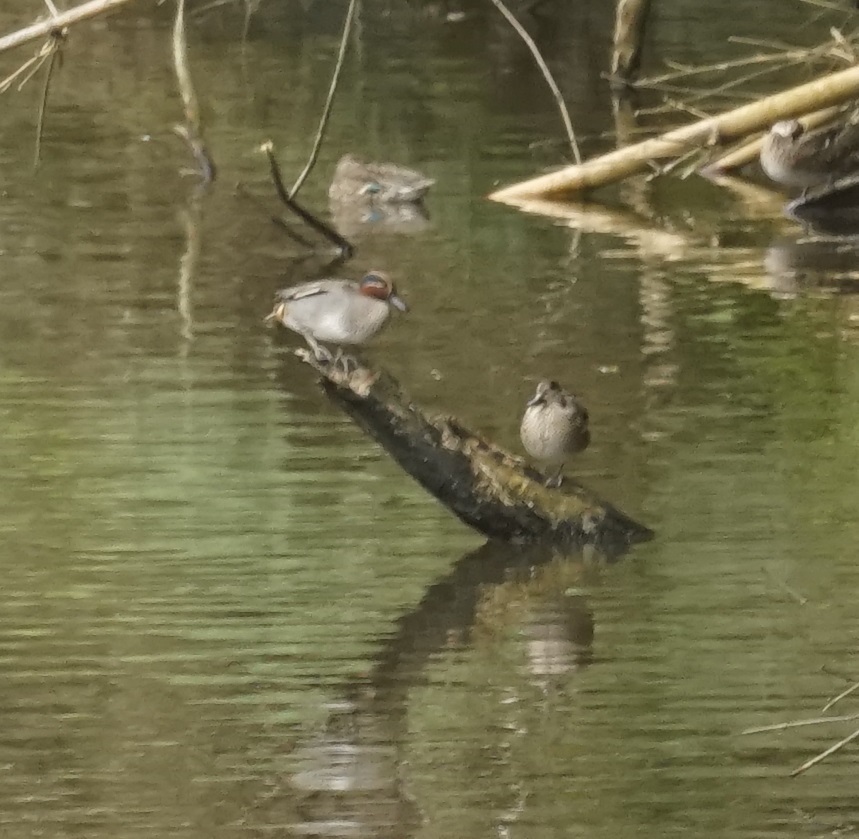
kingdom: Animalia
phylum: Chordata
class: Aves
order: Anseriformes
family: Anatidae
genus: Anas
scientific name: Anas crecca
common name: Eurasian teal
